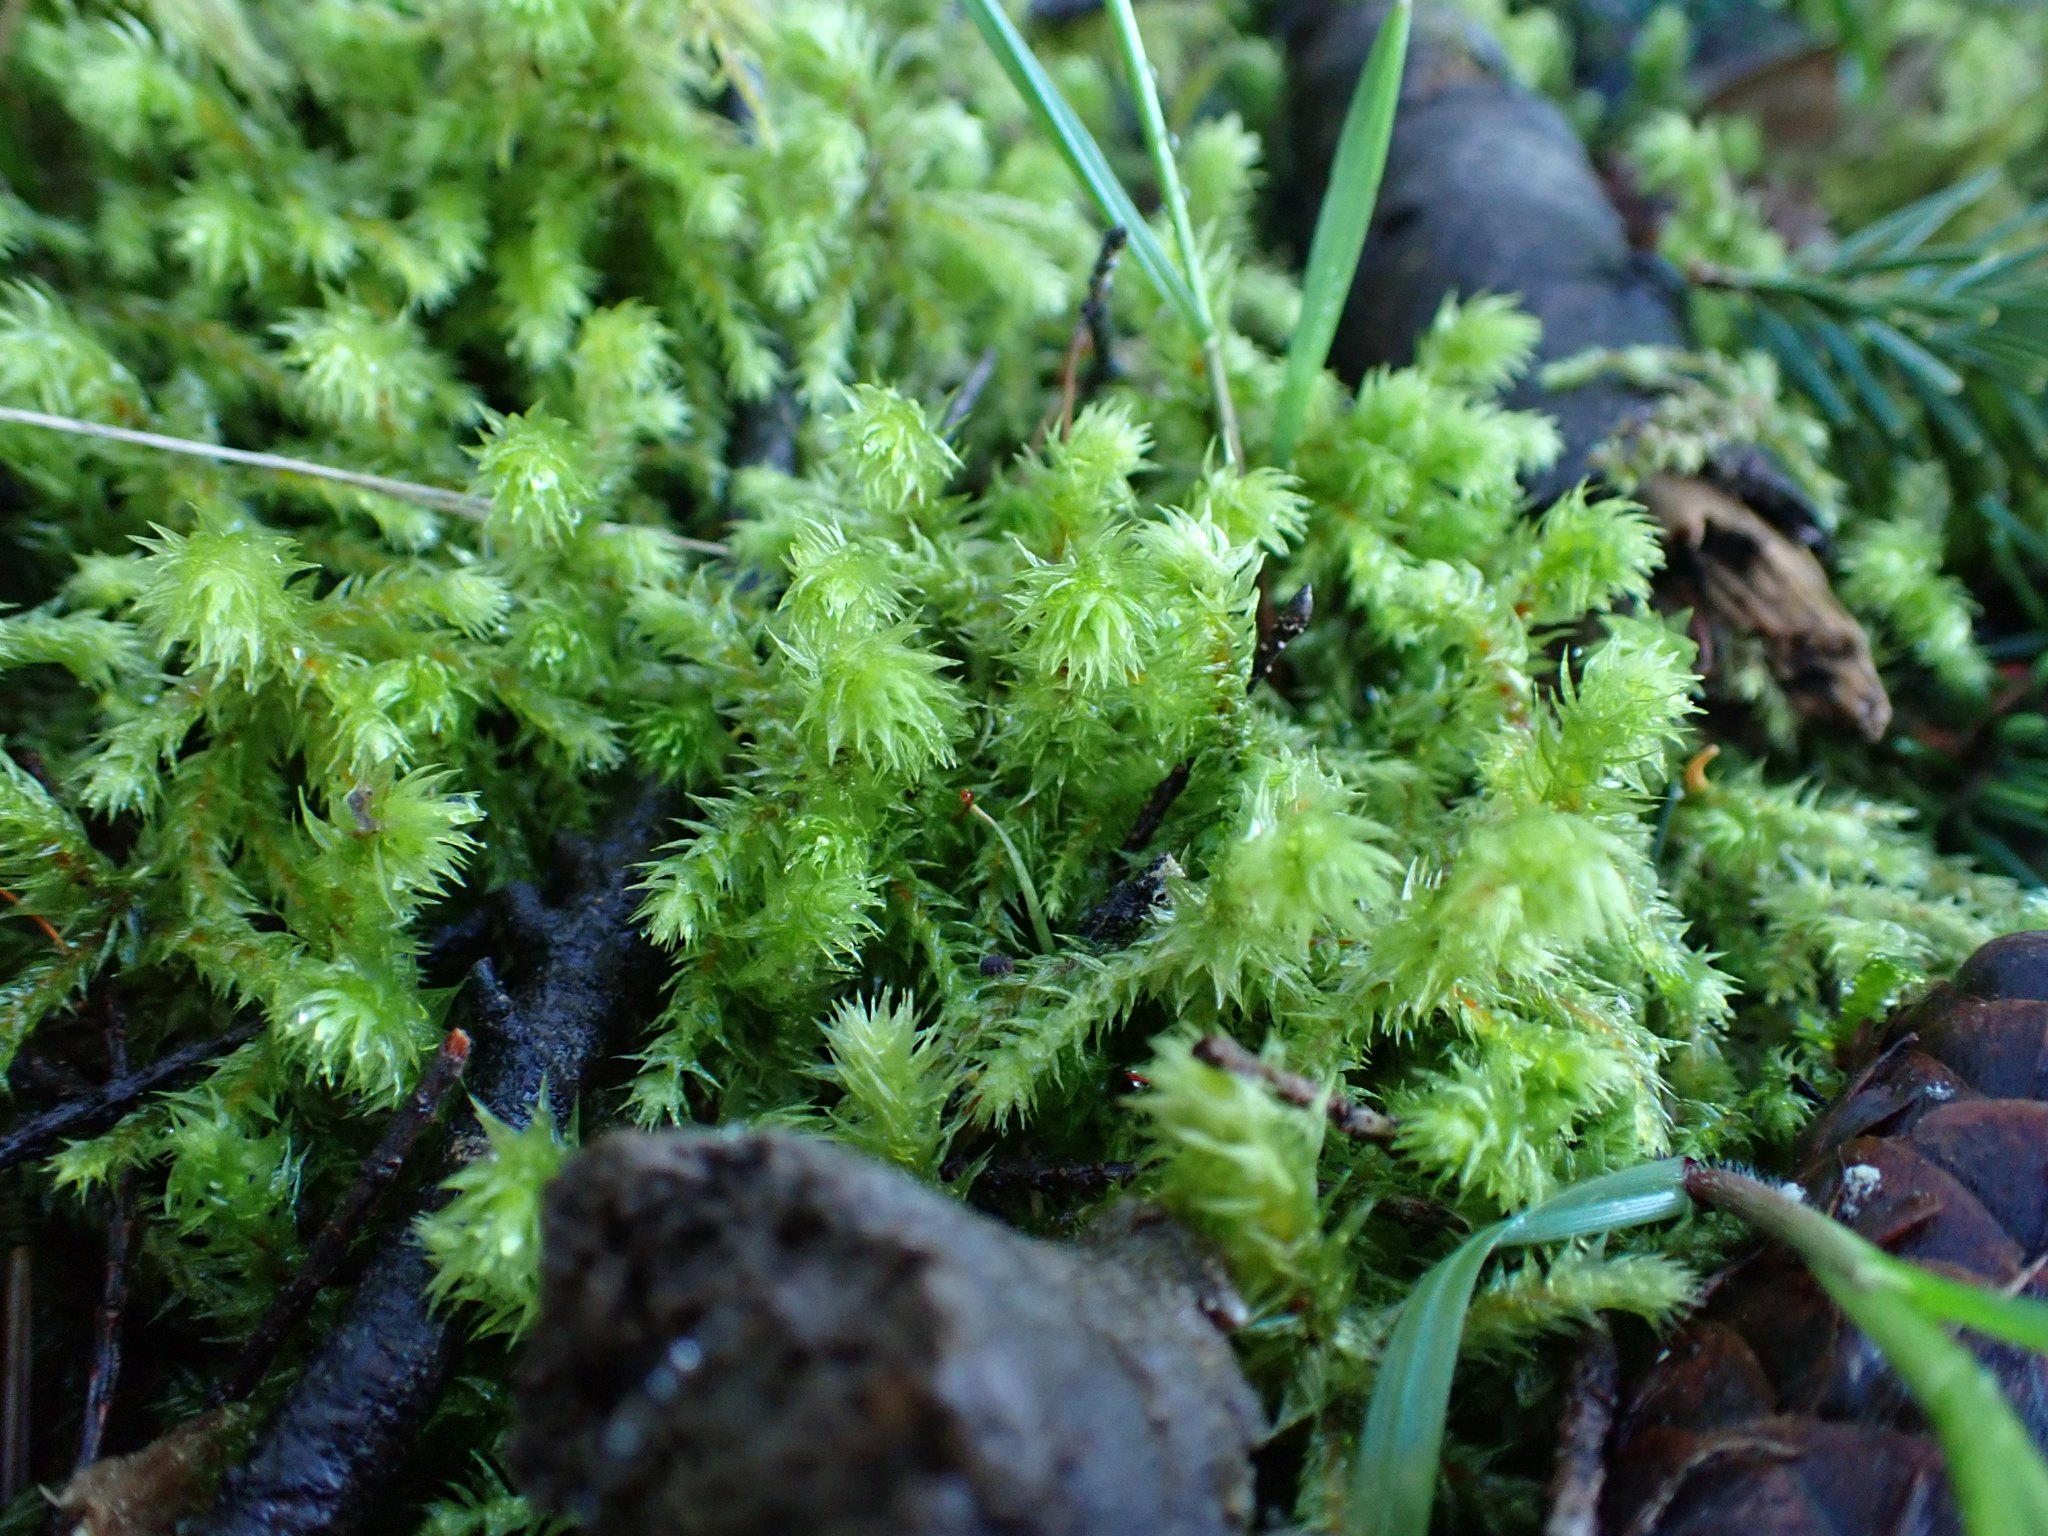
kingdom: Plantae
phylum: Bryophyta
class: Bryopsida
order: Hypnales
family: Hylocomiaceae
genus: Hylocomiadelphus
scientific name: Hylocomiadelphus triquetrus
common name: Rough goose neck moss
